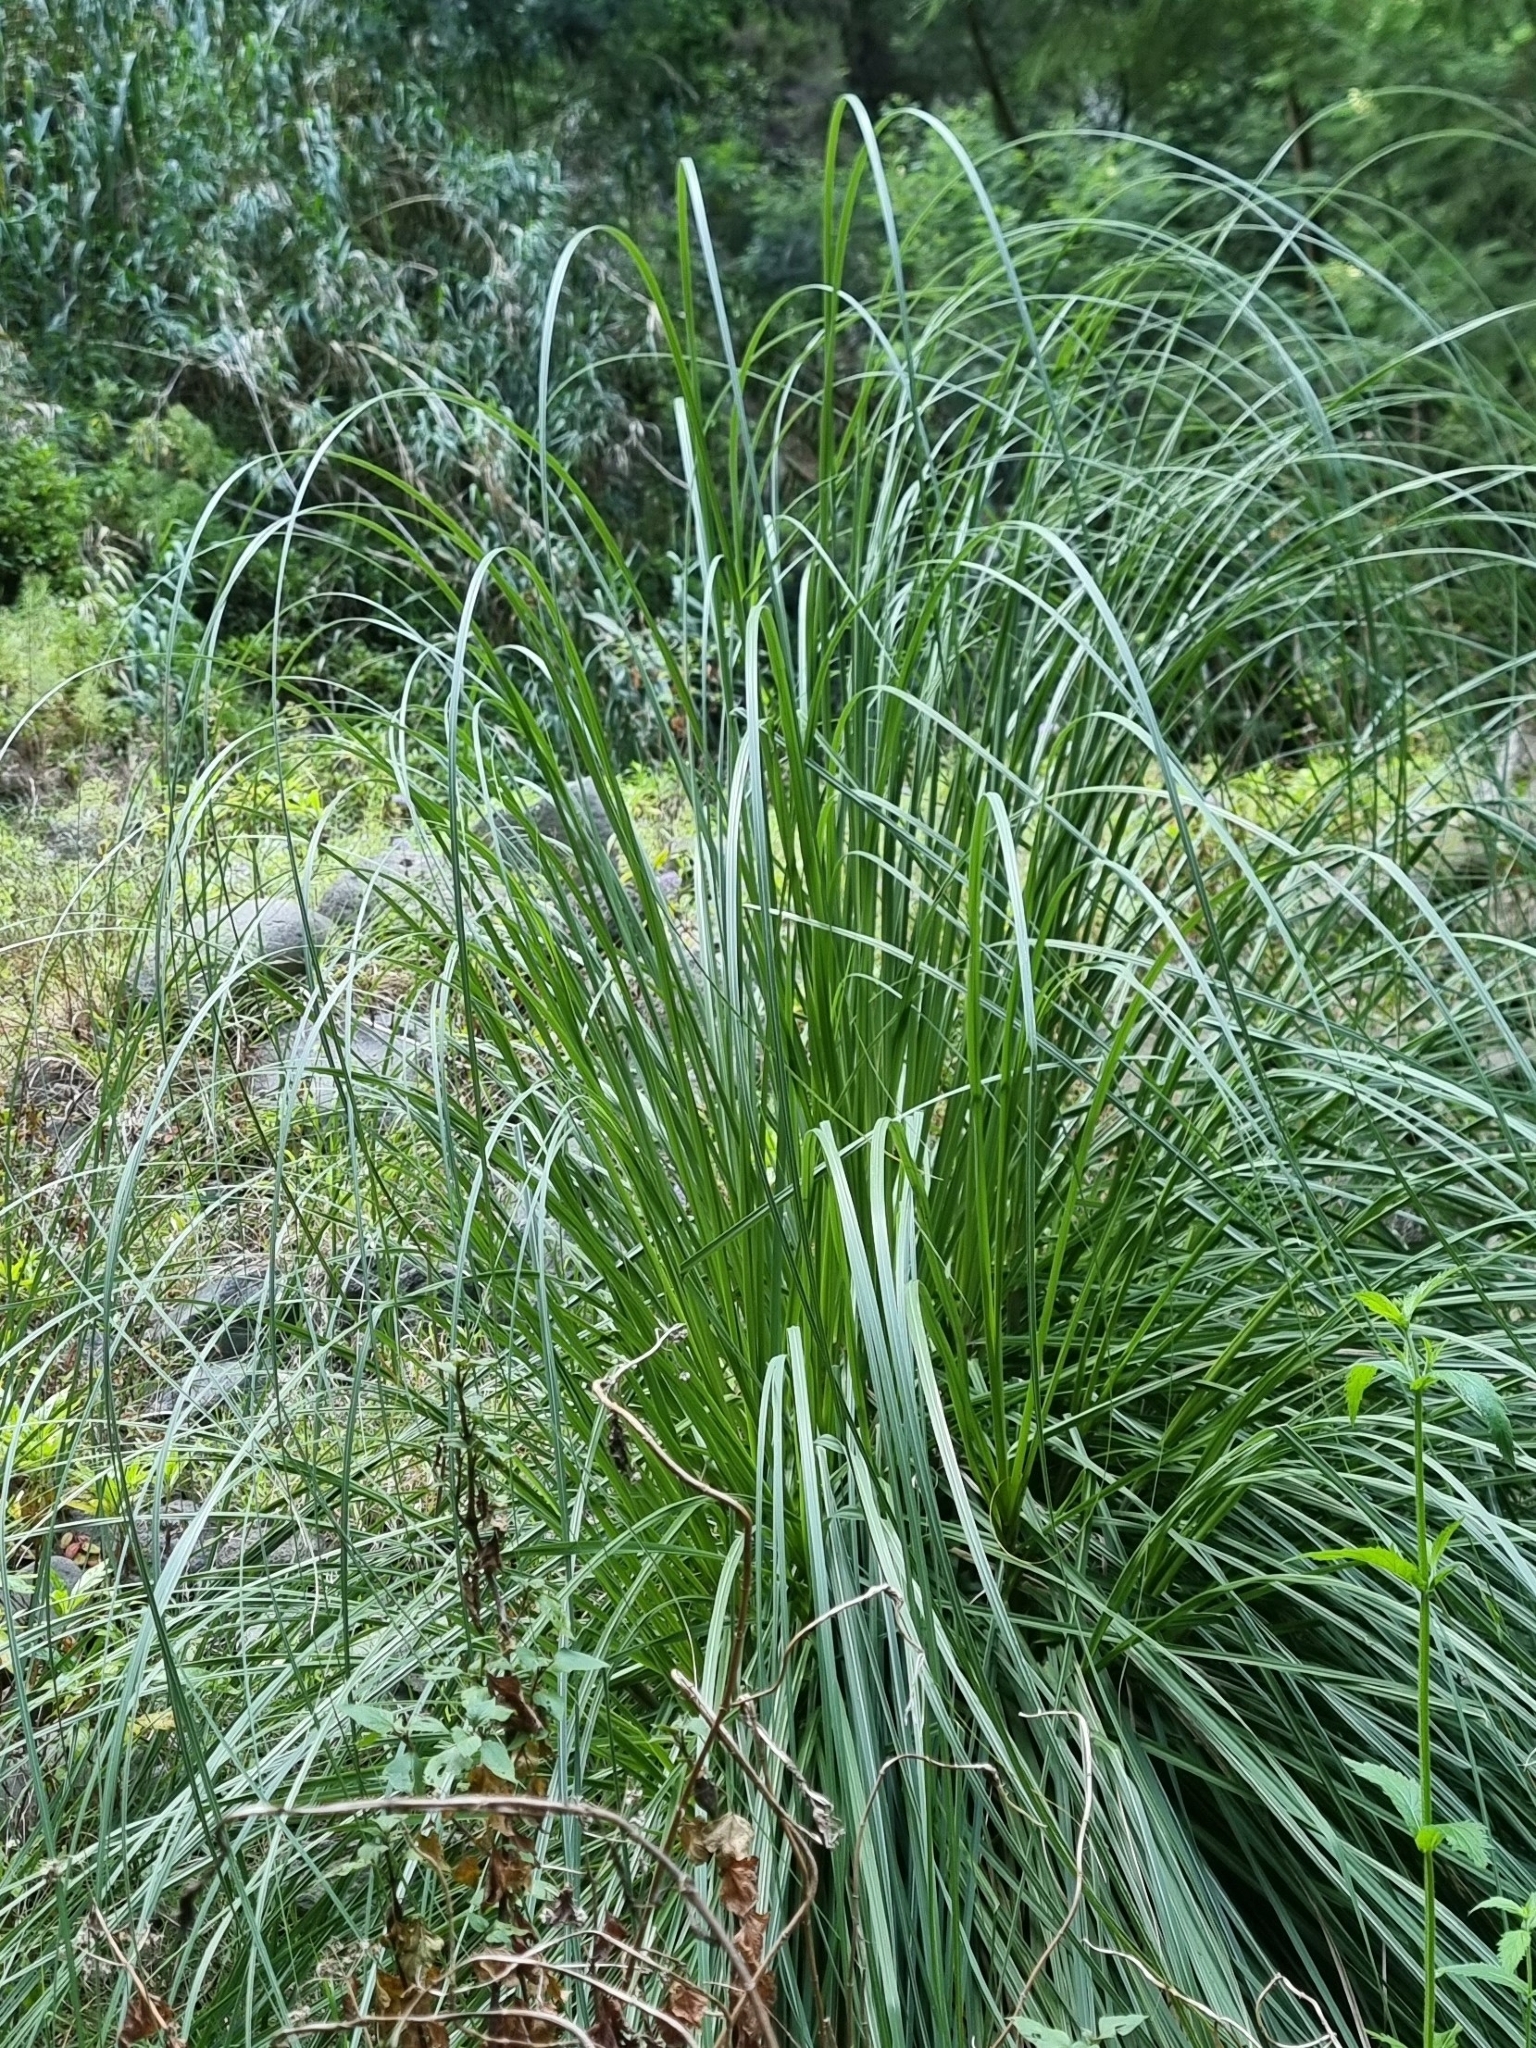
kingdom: Plantae
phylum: Tracheophyta
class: Liliopsida
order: Poales
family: Poaceae
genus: Cortaderia
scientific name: Cortaderia selloana
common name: Uruguayan pampas grass
